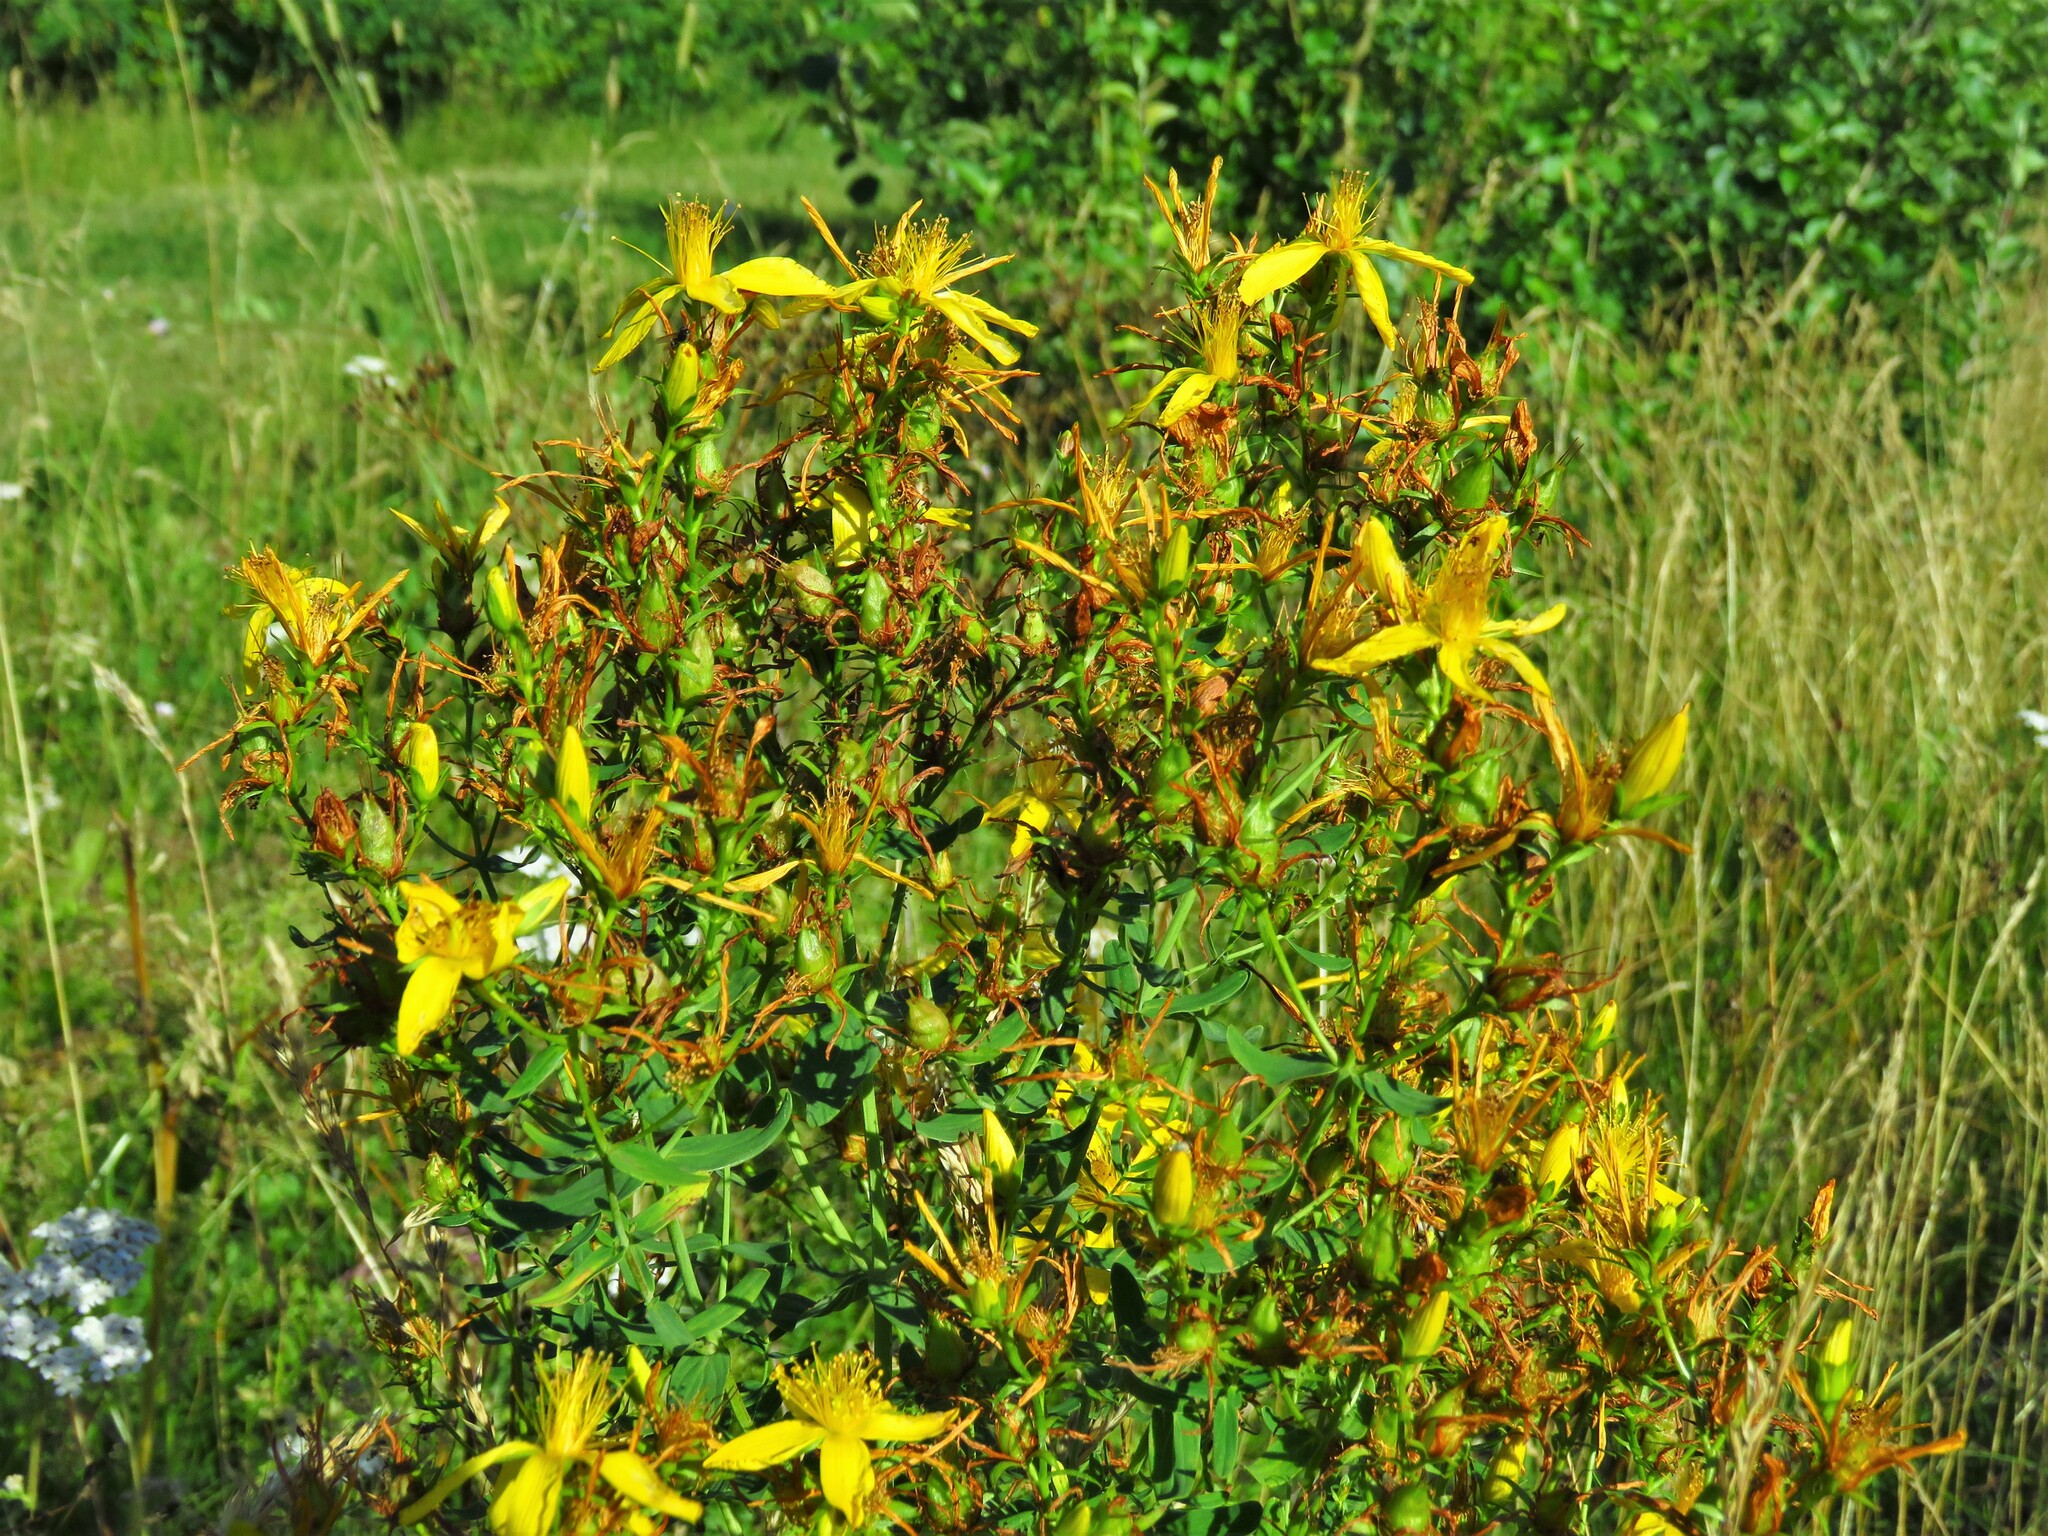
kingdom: Plantae
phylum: Tracheophyta
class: Magnoliopsida
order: Malpighiales
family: Hypericaceae
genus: Hypericum
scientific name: Hypericum perforatum
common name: Common st. johnswort
